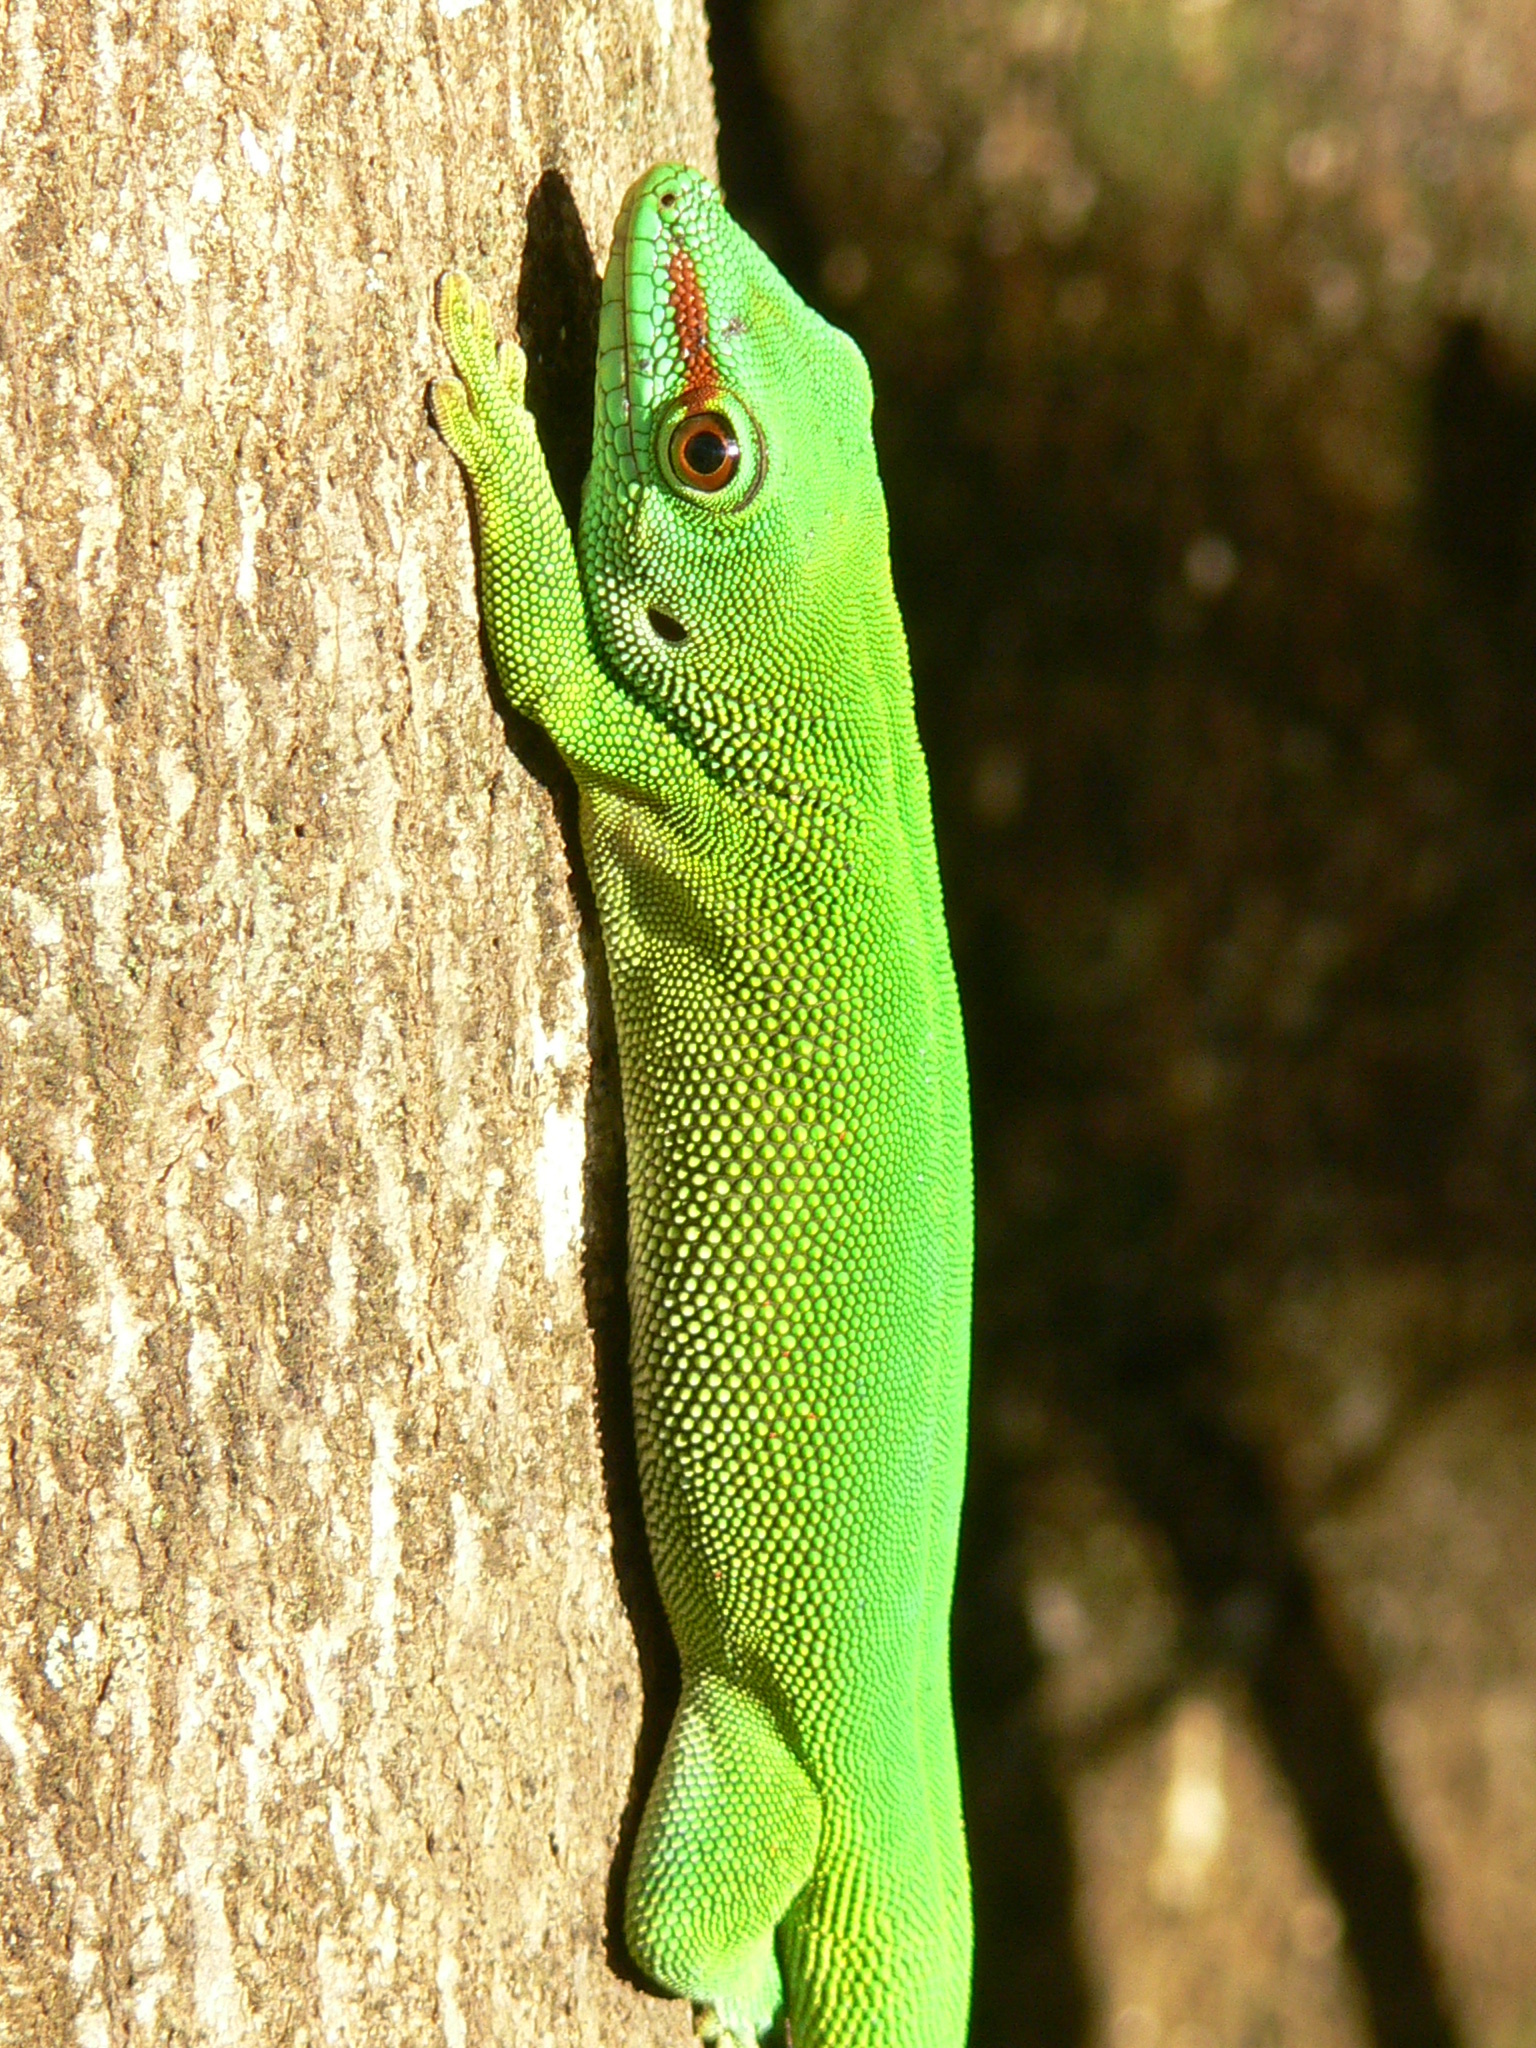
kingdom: Animalia
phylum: Chordata
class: Squamata
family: Gekkonidae
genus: Phelsuma
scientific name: Phelsuma grandis
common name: Madagascar giant day gecko
